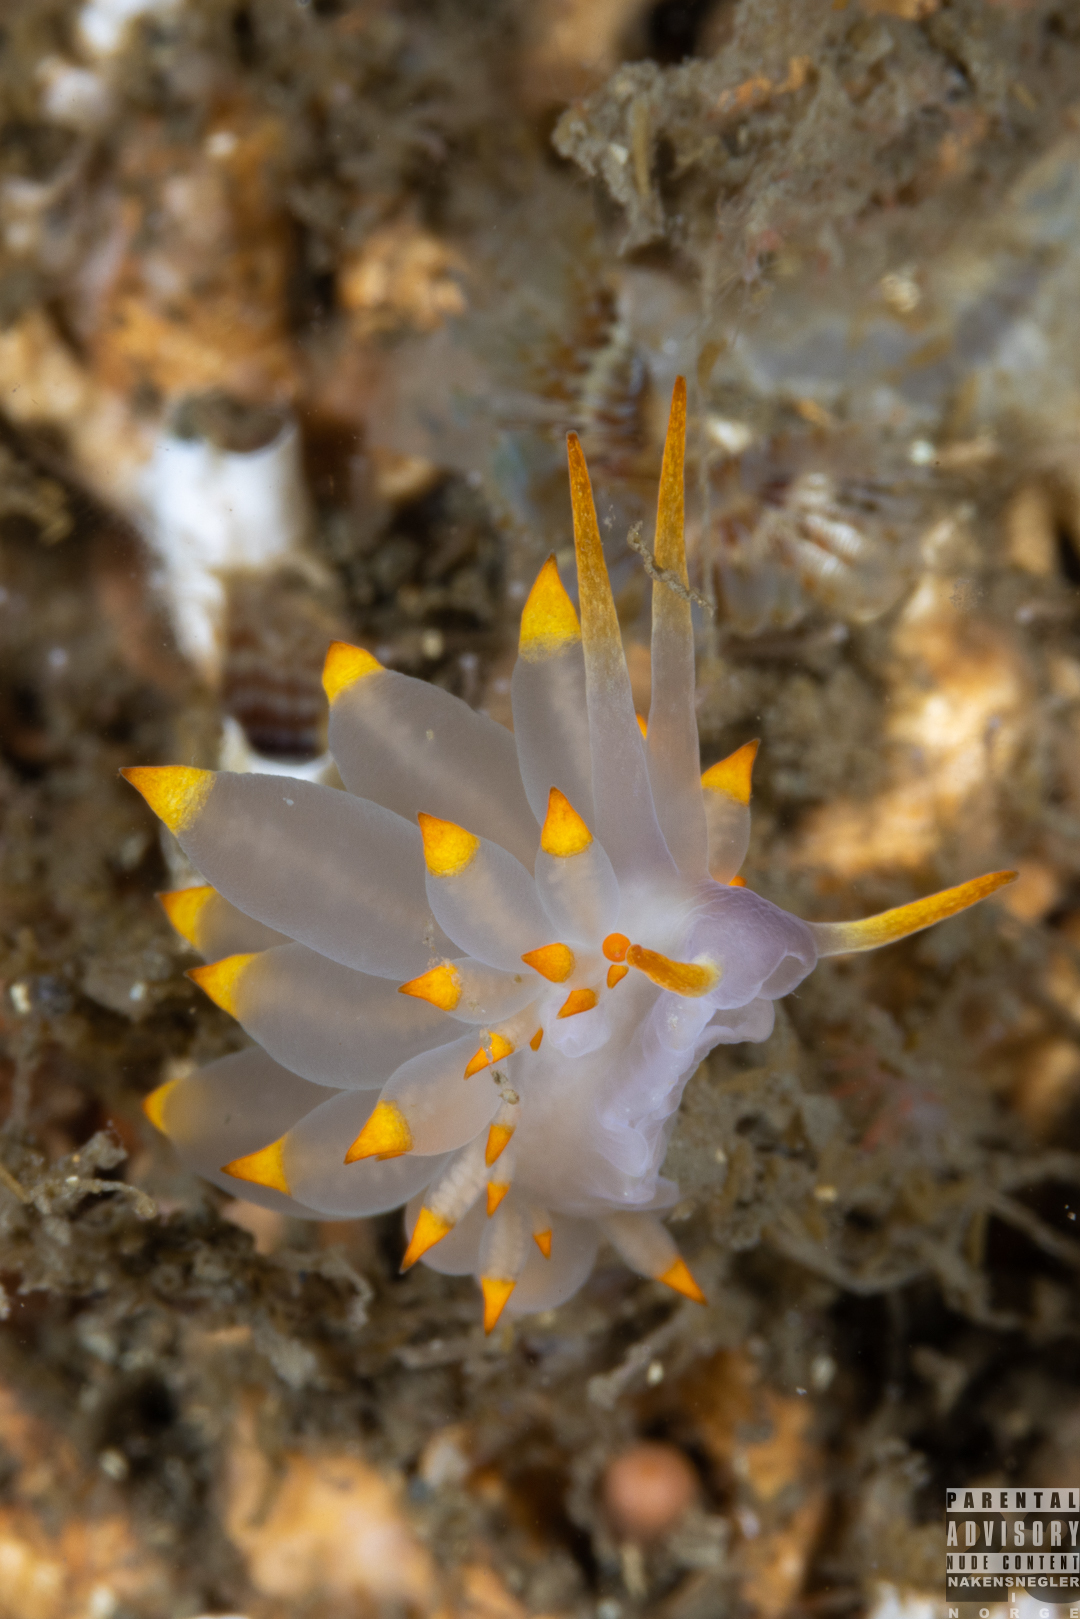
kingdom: Animalia
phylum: Mollusca
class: Gastropoda
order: Nudibranchia
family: Eubranchidae
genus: Amphorina
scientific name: Amphorina farrani
